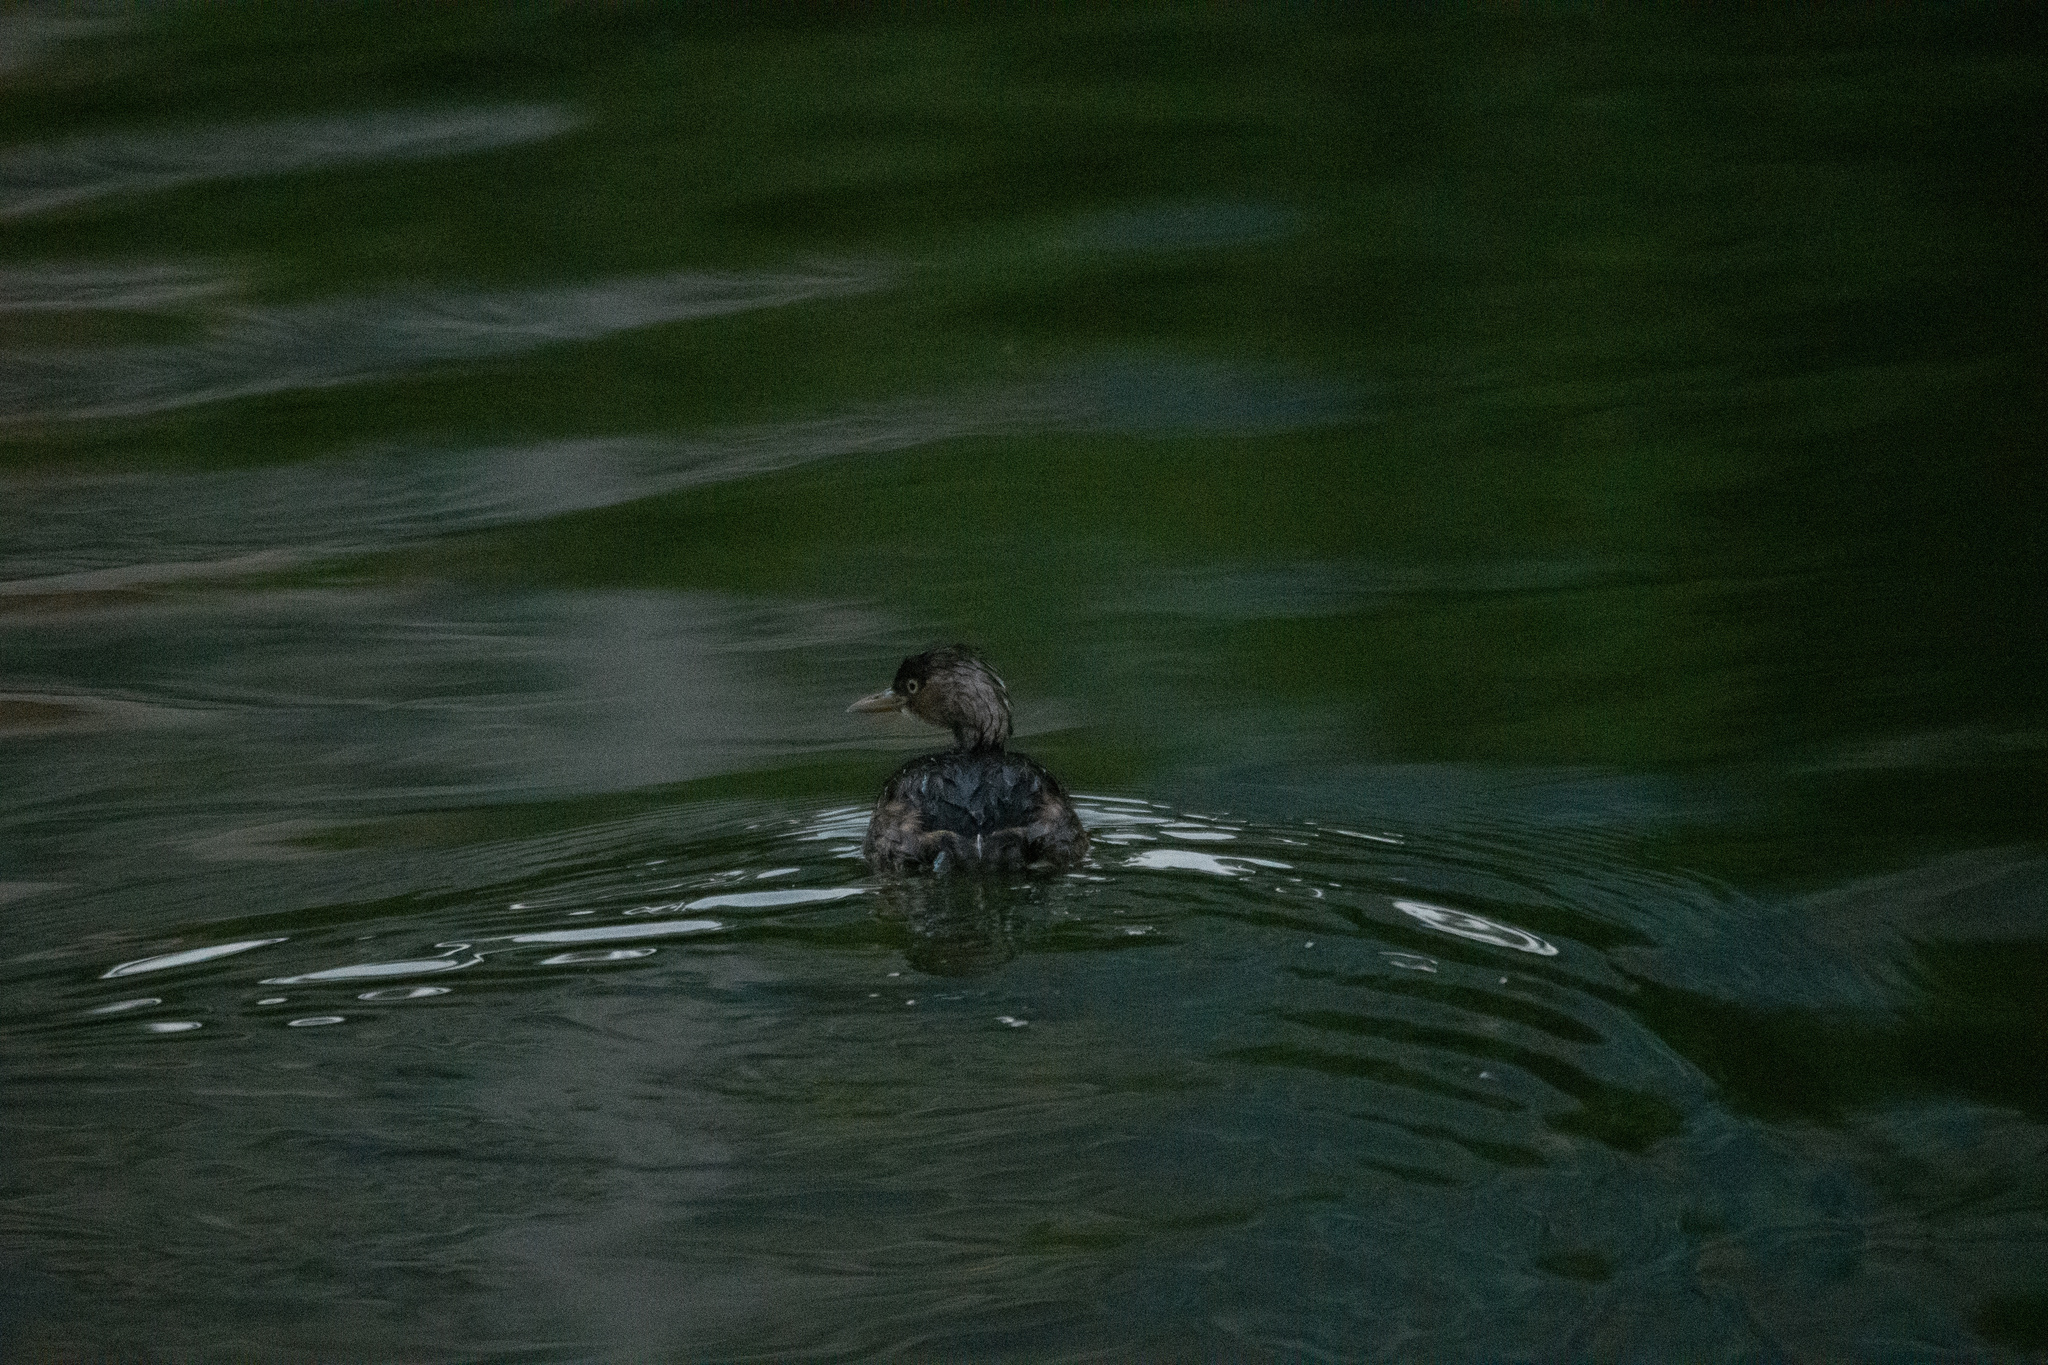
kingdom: Animalia
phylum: Chordata
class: Aves
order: Podicipediformes
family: Podicipedidae
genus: Tachybaptus
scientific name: Tachybaptus ruficollis
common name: Little grebe
